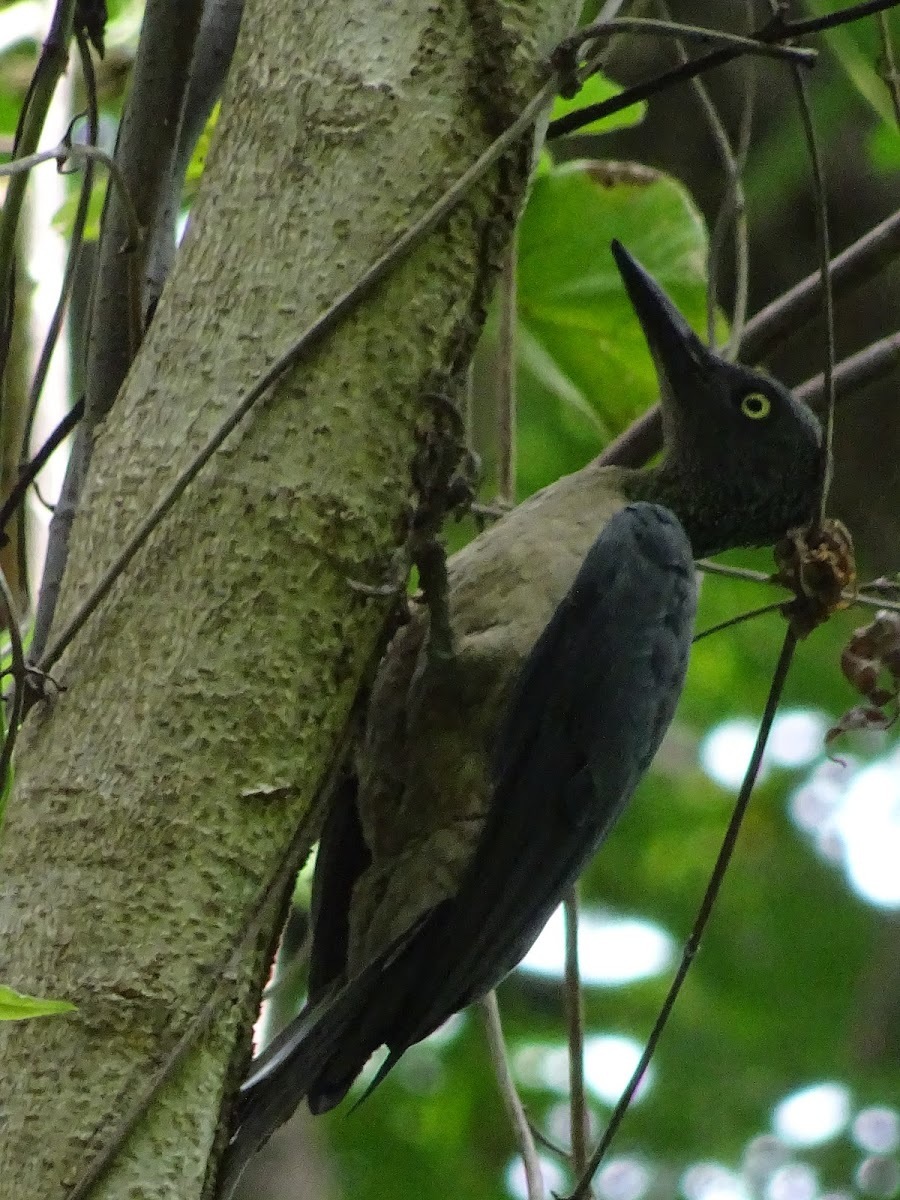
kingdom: Animalia
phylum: Chordata
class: Aves
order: Piciformes
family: Picidae
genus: Mulleripicus
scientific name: Mulleripicus fulvus
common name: Ashy woodpecker
